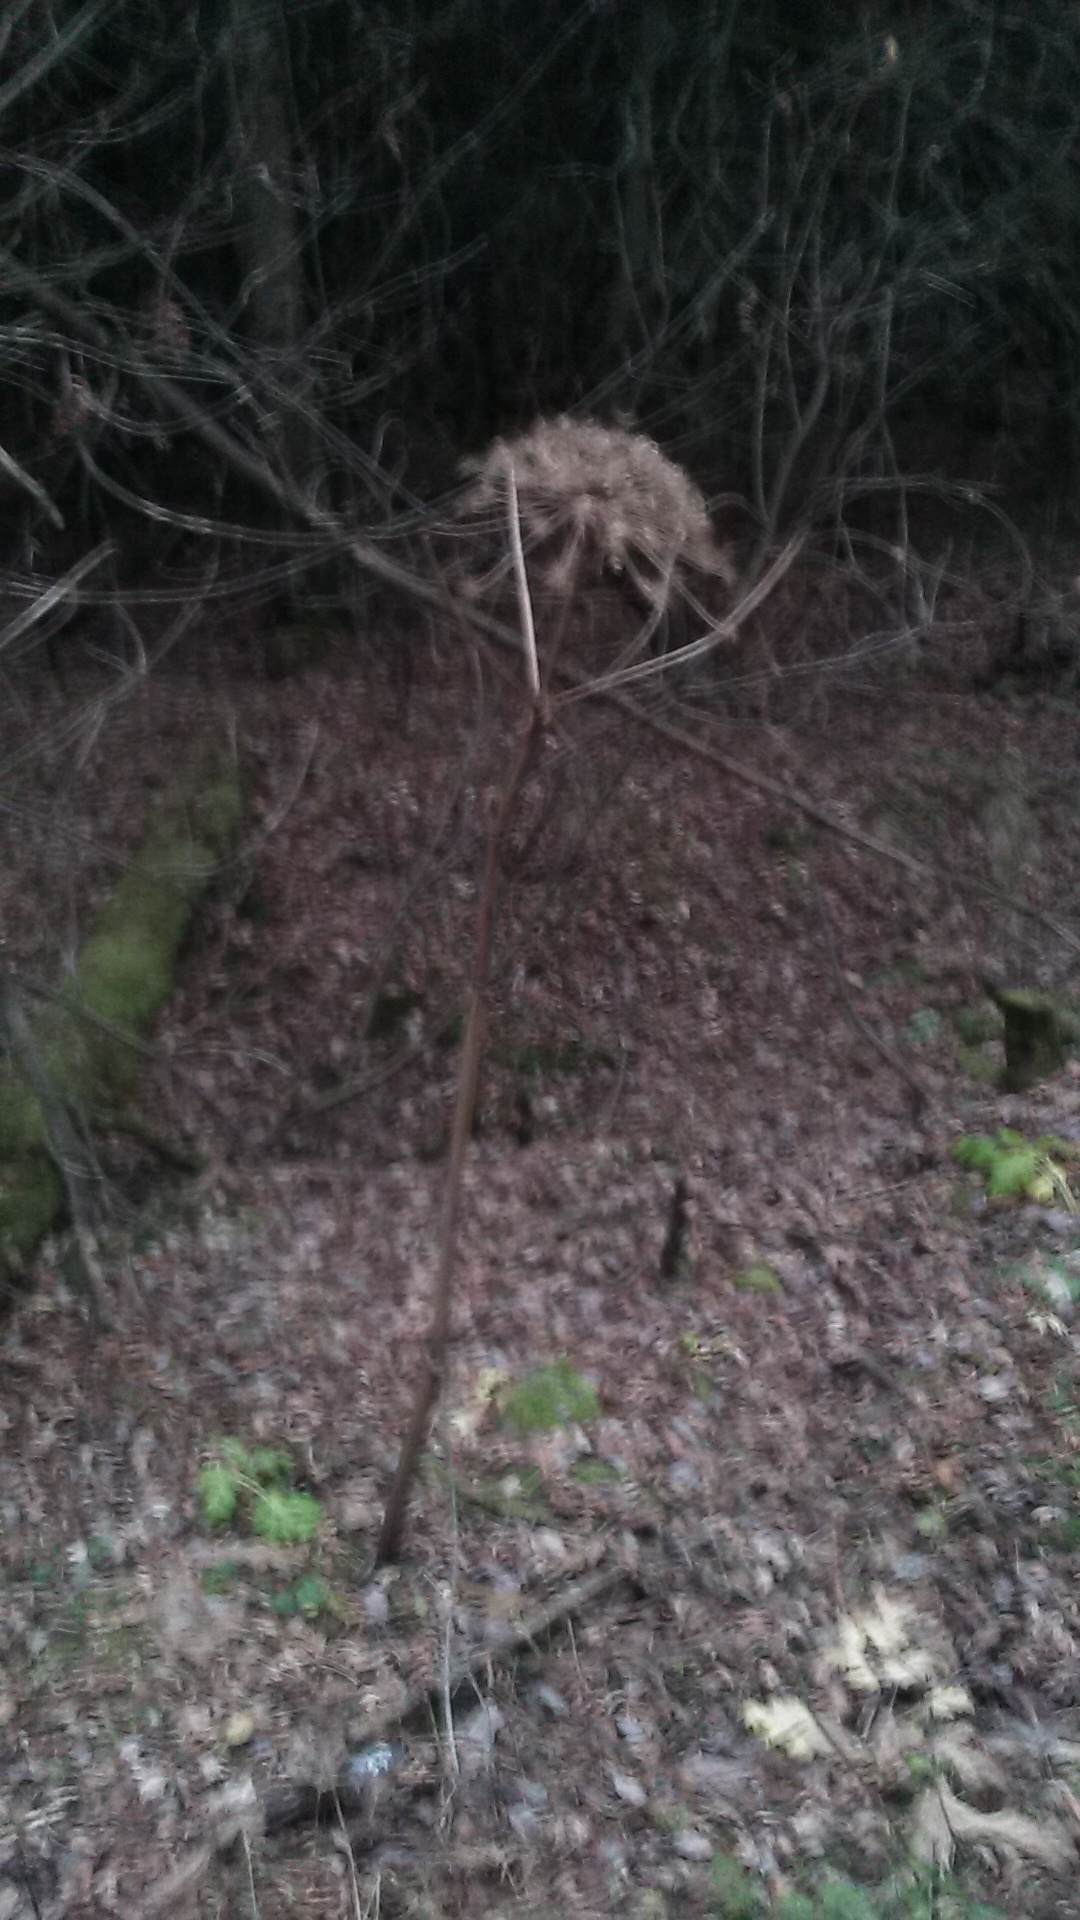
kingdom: Plantae
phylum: Tracheophyta
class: Magnoliopsida
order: Apiales
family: Apiaceae
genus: Heracleum
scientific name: Heracleum sosnowskyi
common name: Sosnowsky's hogweed
